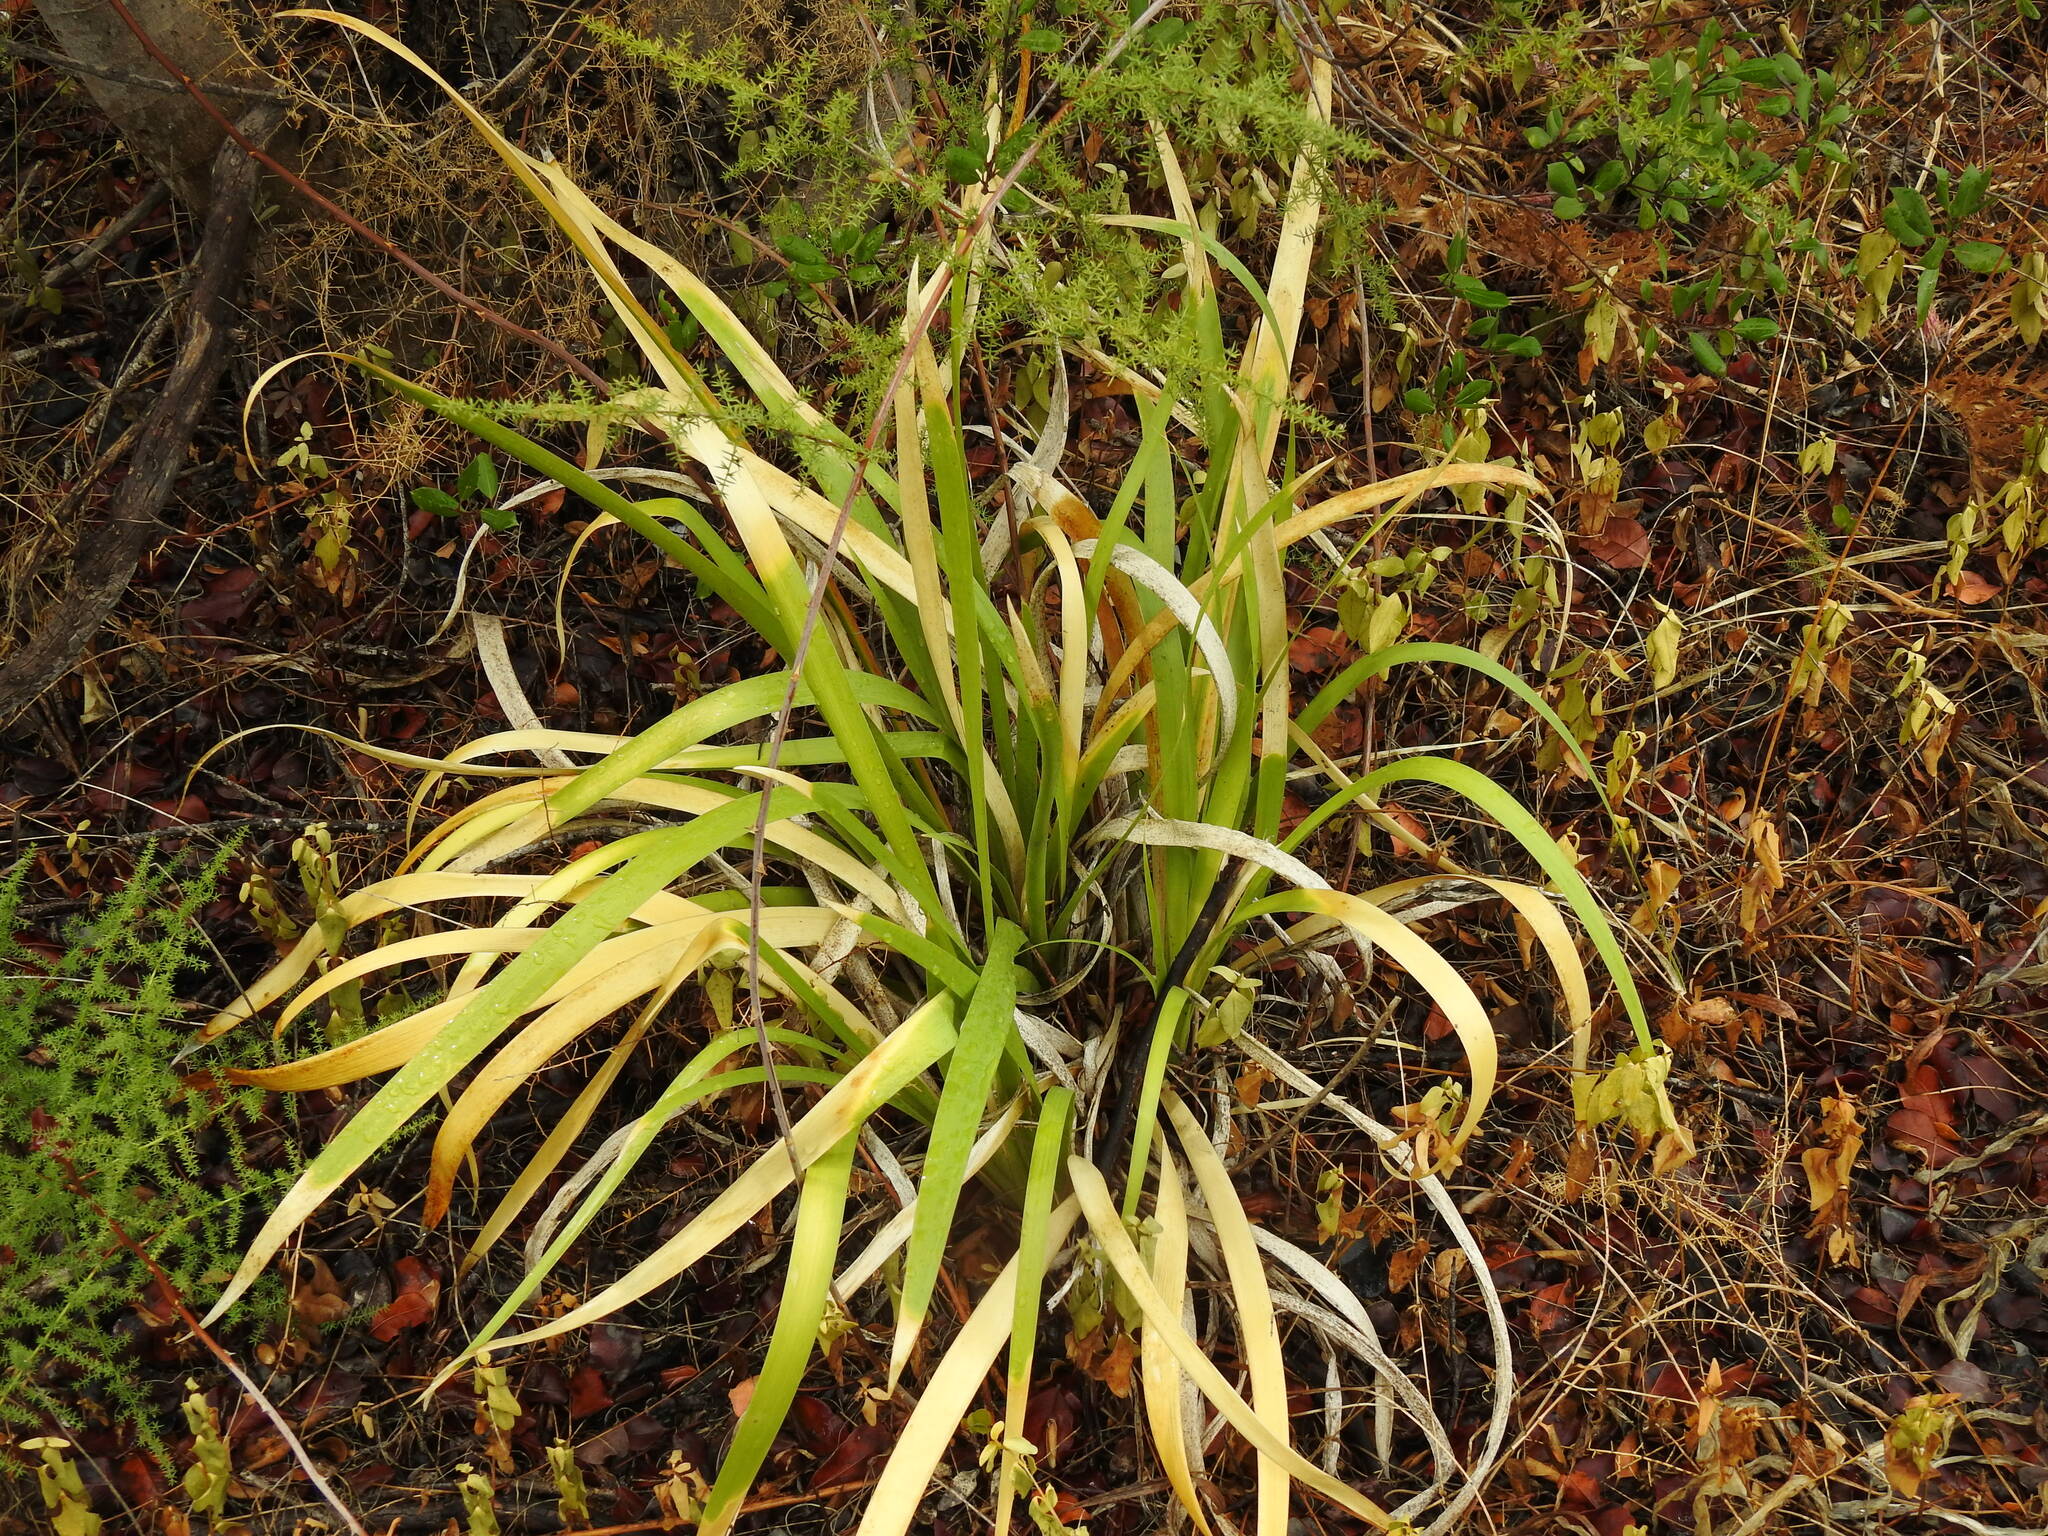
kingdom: Plantae
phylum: Tracheophyta
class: Liliopsida
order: Asparagales
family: Iridaceae
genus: Iris
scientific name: Iris foetidissima
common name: Stinking iris
